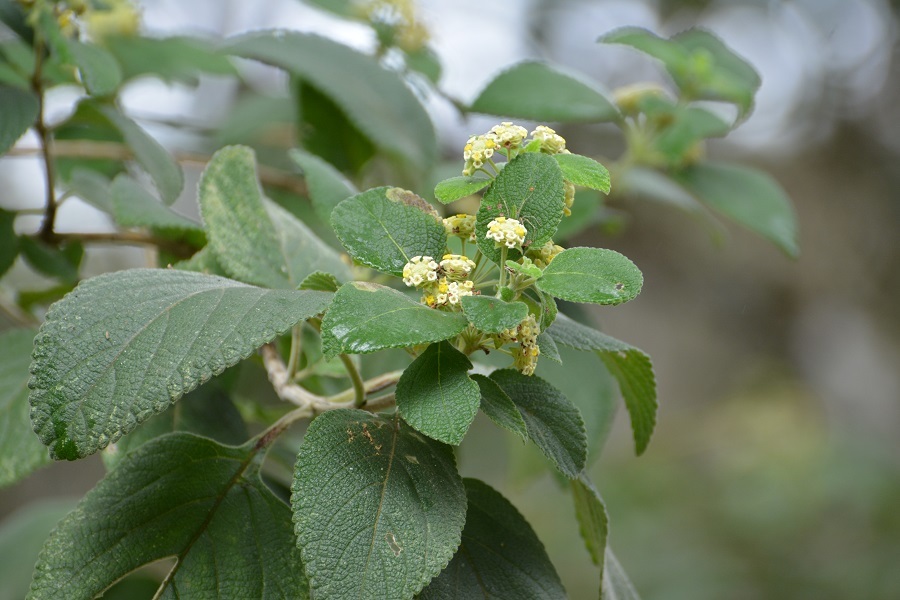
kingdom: Plantae
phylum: Tracheophyta
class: Magnoliopsida
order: Lamiales
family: Verbenaceae
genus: Lippia
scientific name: Lippia umbellata
